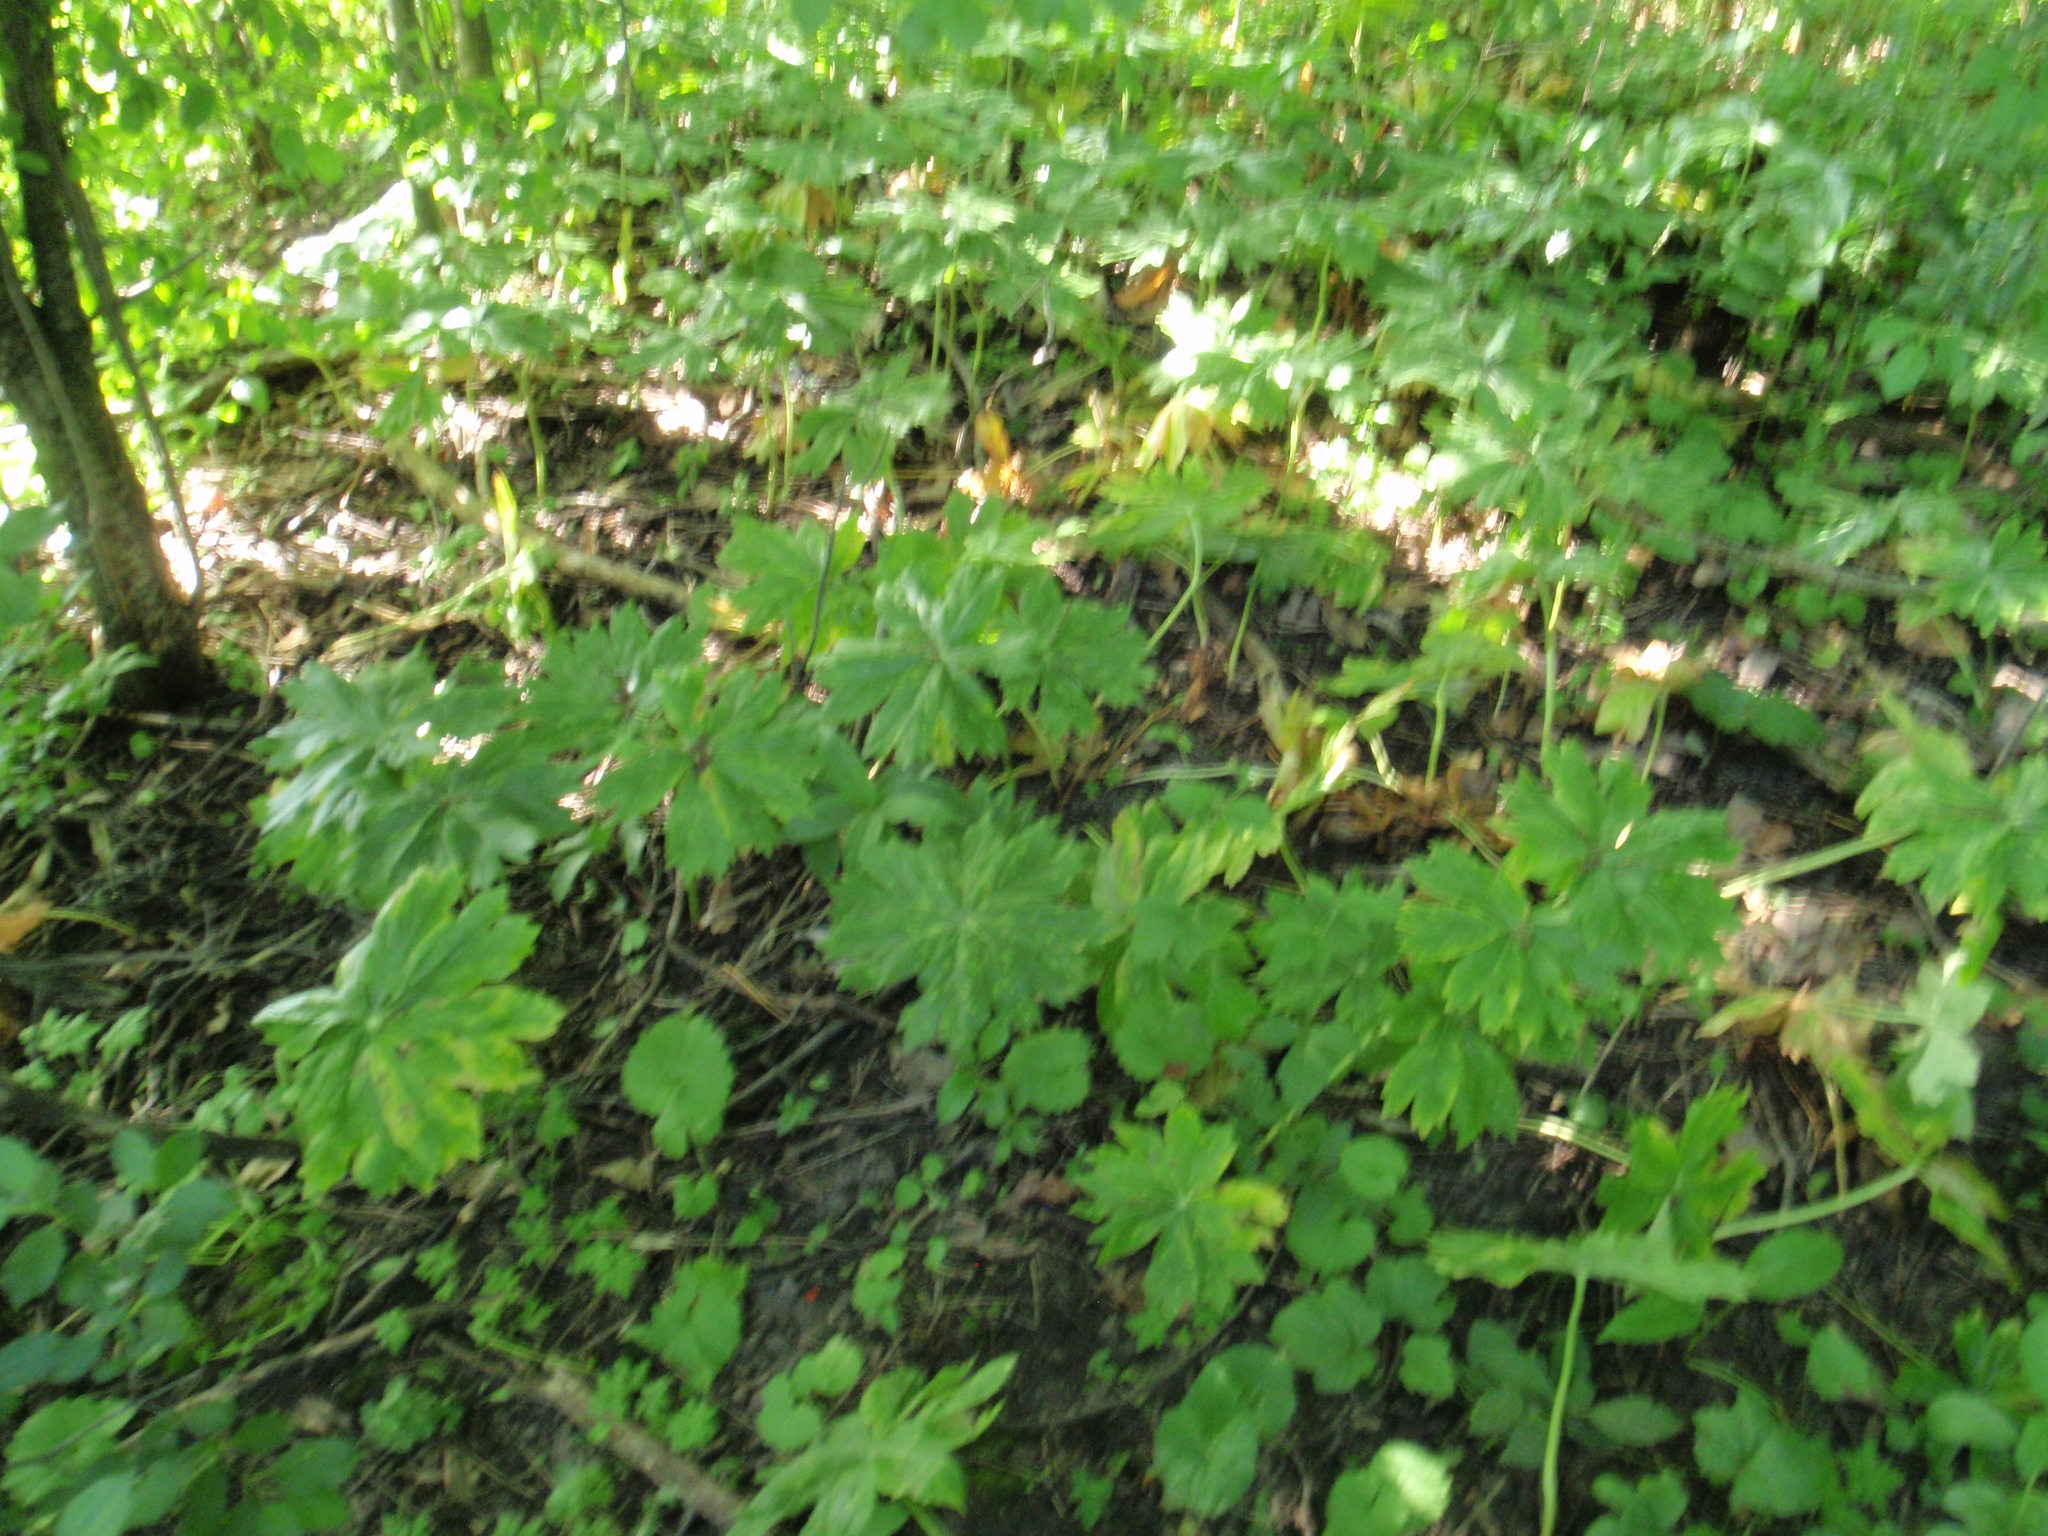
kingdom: Plantae
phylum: Tracheophyta
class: Magnoliopsida
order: Ranunculales
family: Berberidaceae
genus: Podophyllum
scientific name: Podophyllum peltatum
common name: Wild mandrake
